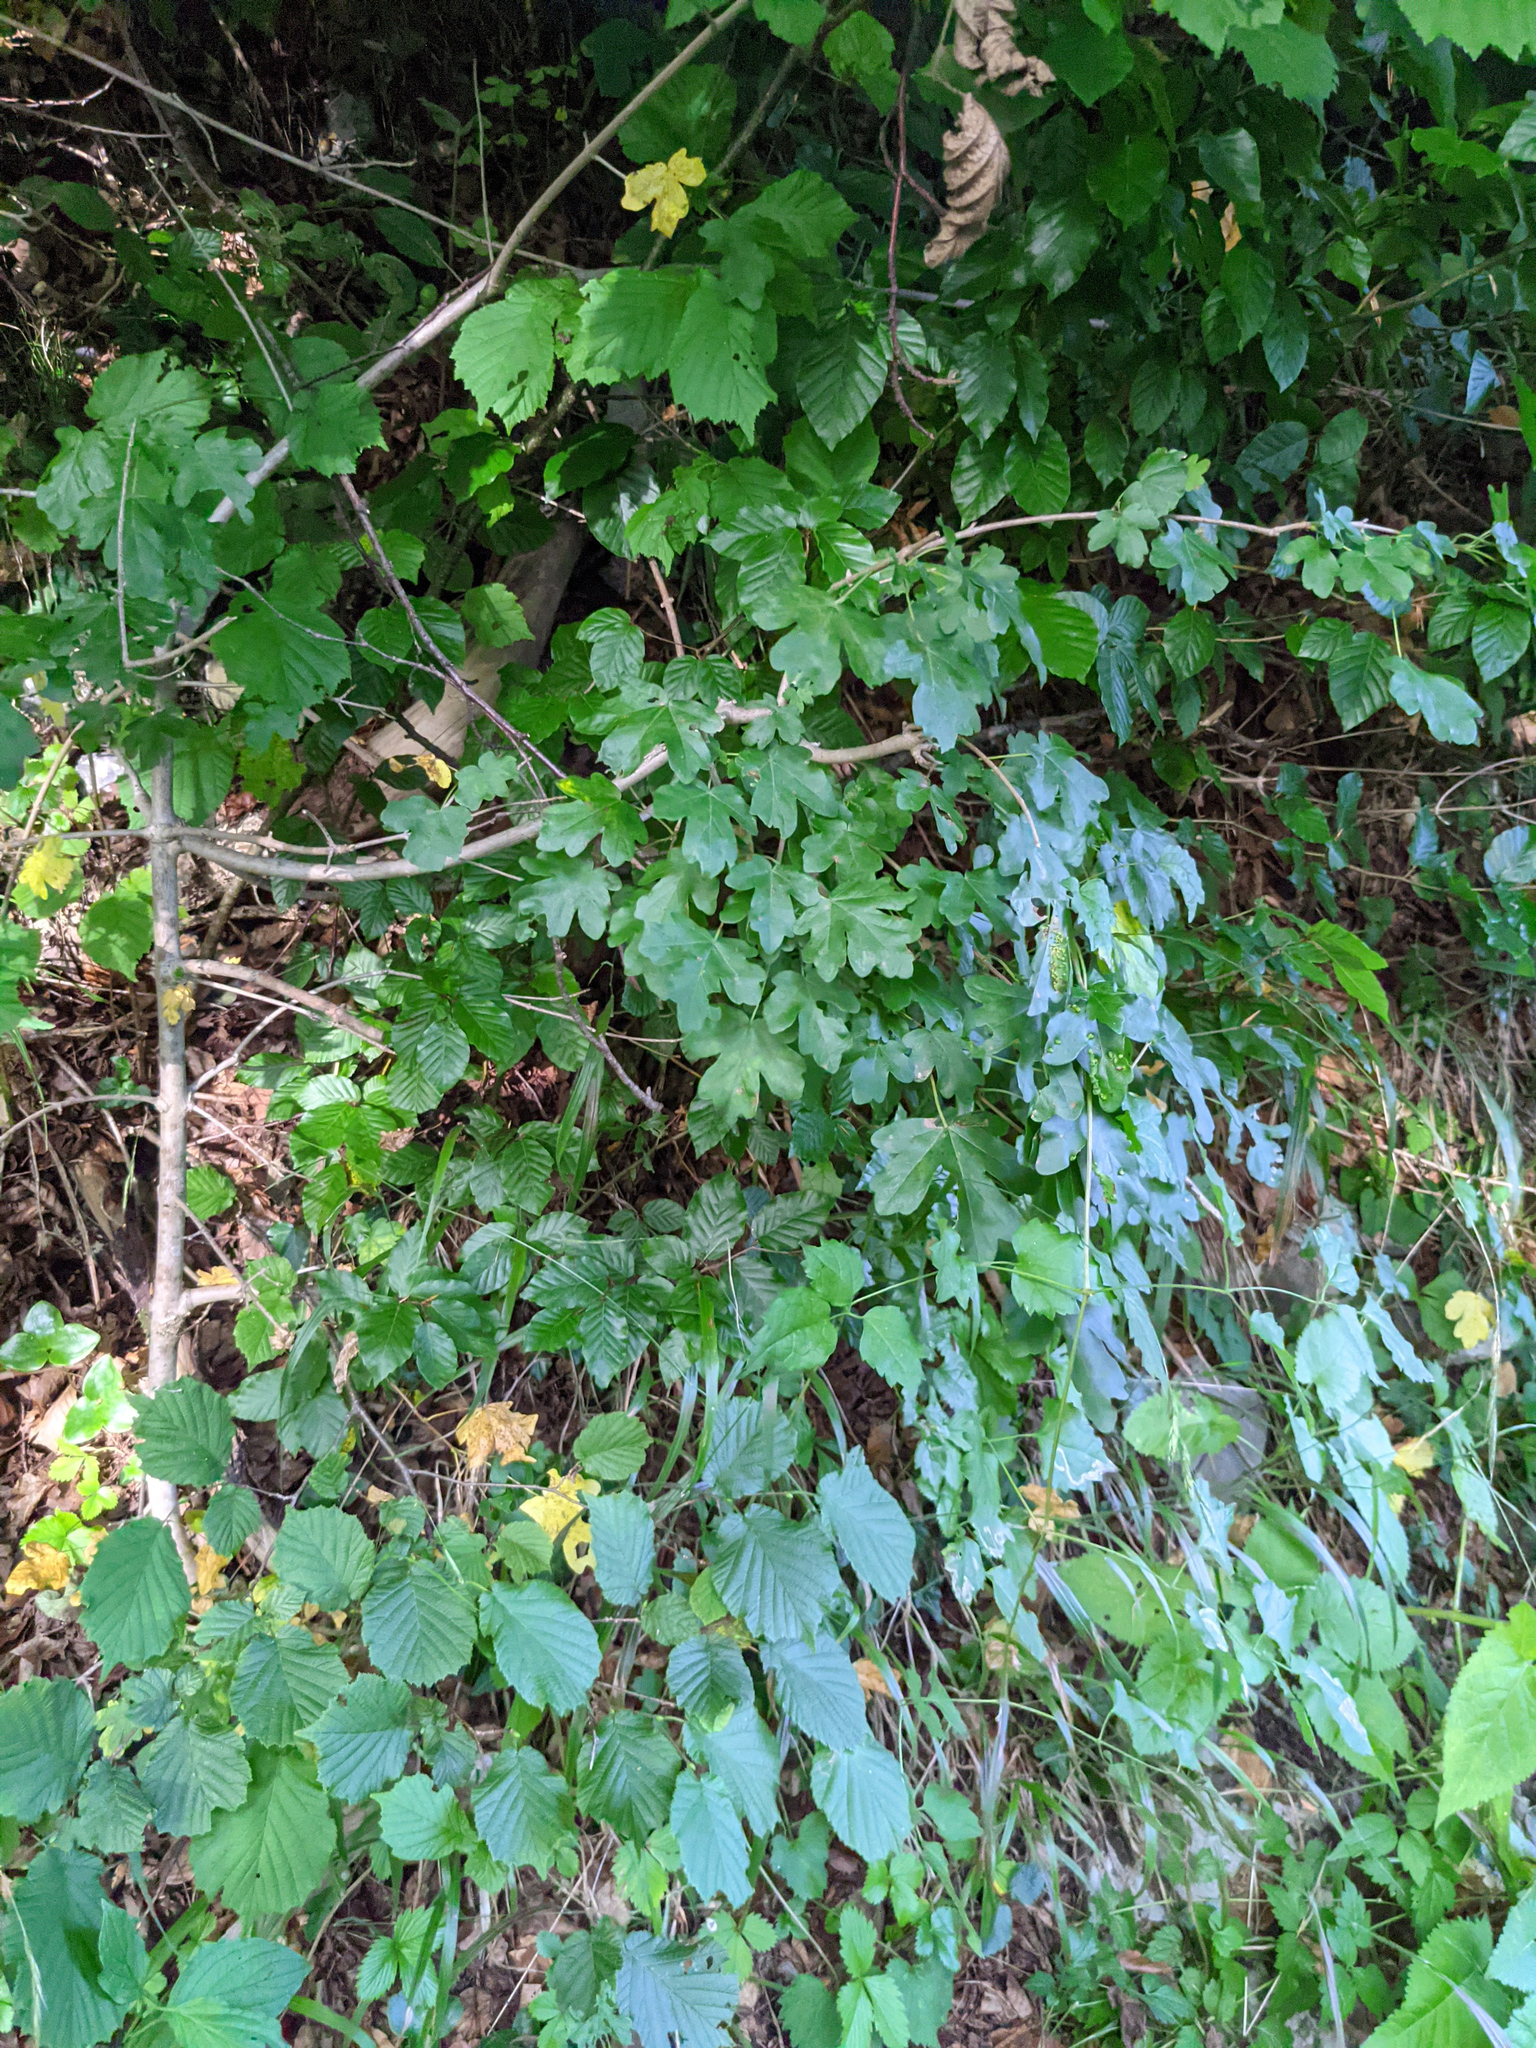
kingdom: Plantae
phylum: Tracheophyta
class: Magnoliopsida
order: Sapindales
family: Sapindaceae
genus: Acer
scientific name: Acer campestre
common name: Field maple
